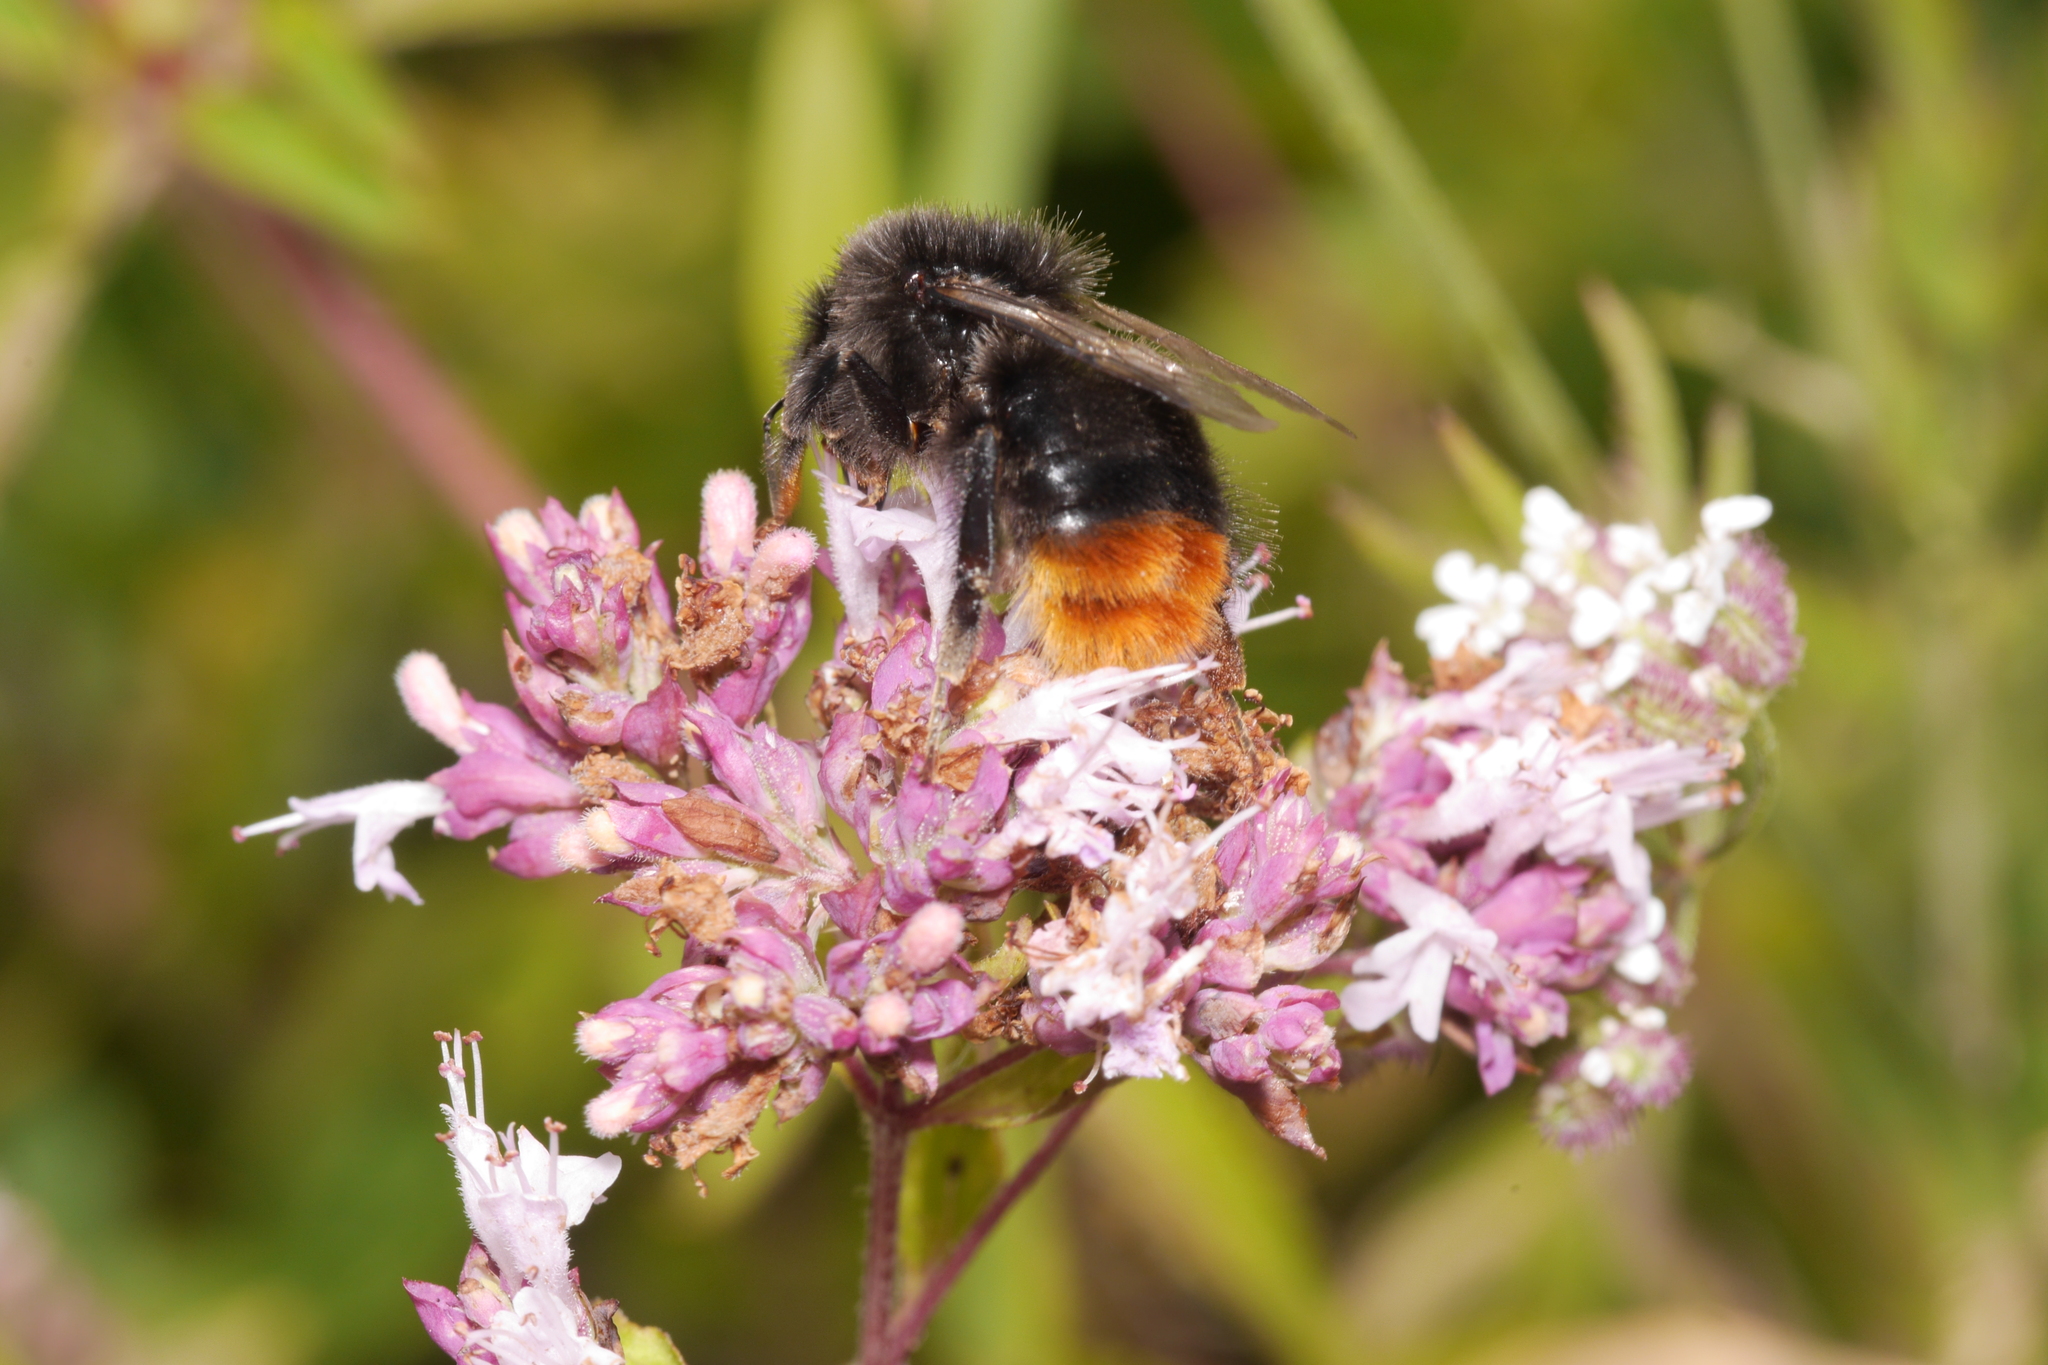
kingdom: Animalia
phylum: Arthropoda
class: Insecta
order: Hymenoptera
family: Apidae
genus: Bombus
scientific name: Bombus lapidarius
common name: Large red-tailed humble-bee
